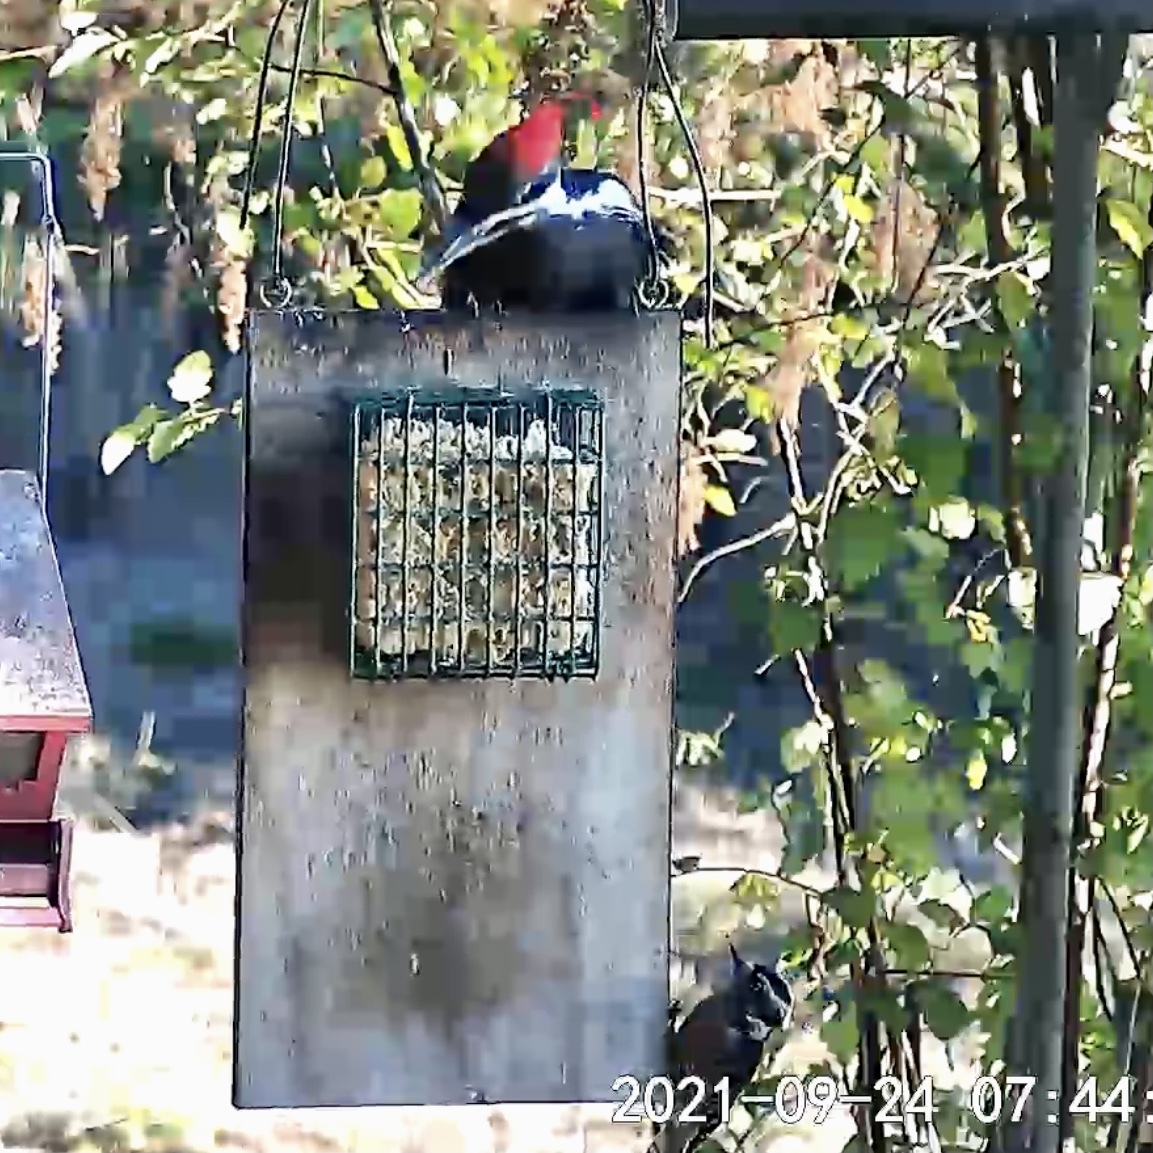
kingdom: Animalia
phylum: Chordata
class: Aves
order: Piciformes
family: Picidae
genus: Dryocopus
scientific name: Dryocopus pileatus
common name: Pileated woodpecker
